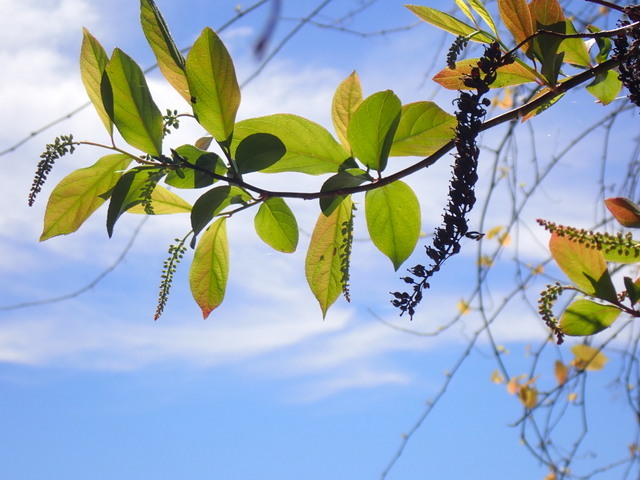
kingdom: Plantae
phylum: Tracheophyta
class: Magnoliopsida
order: Saxifragales
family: Iteaceae
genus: Itea
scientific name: Itea virginica
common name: Sweetspire
